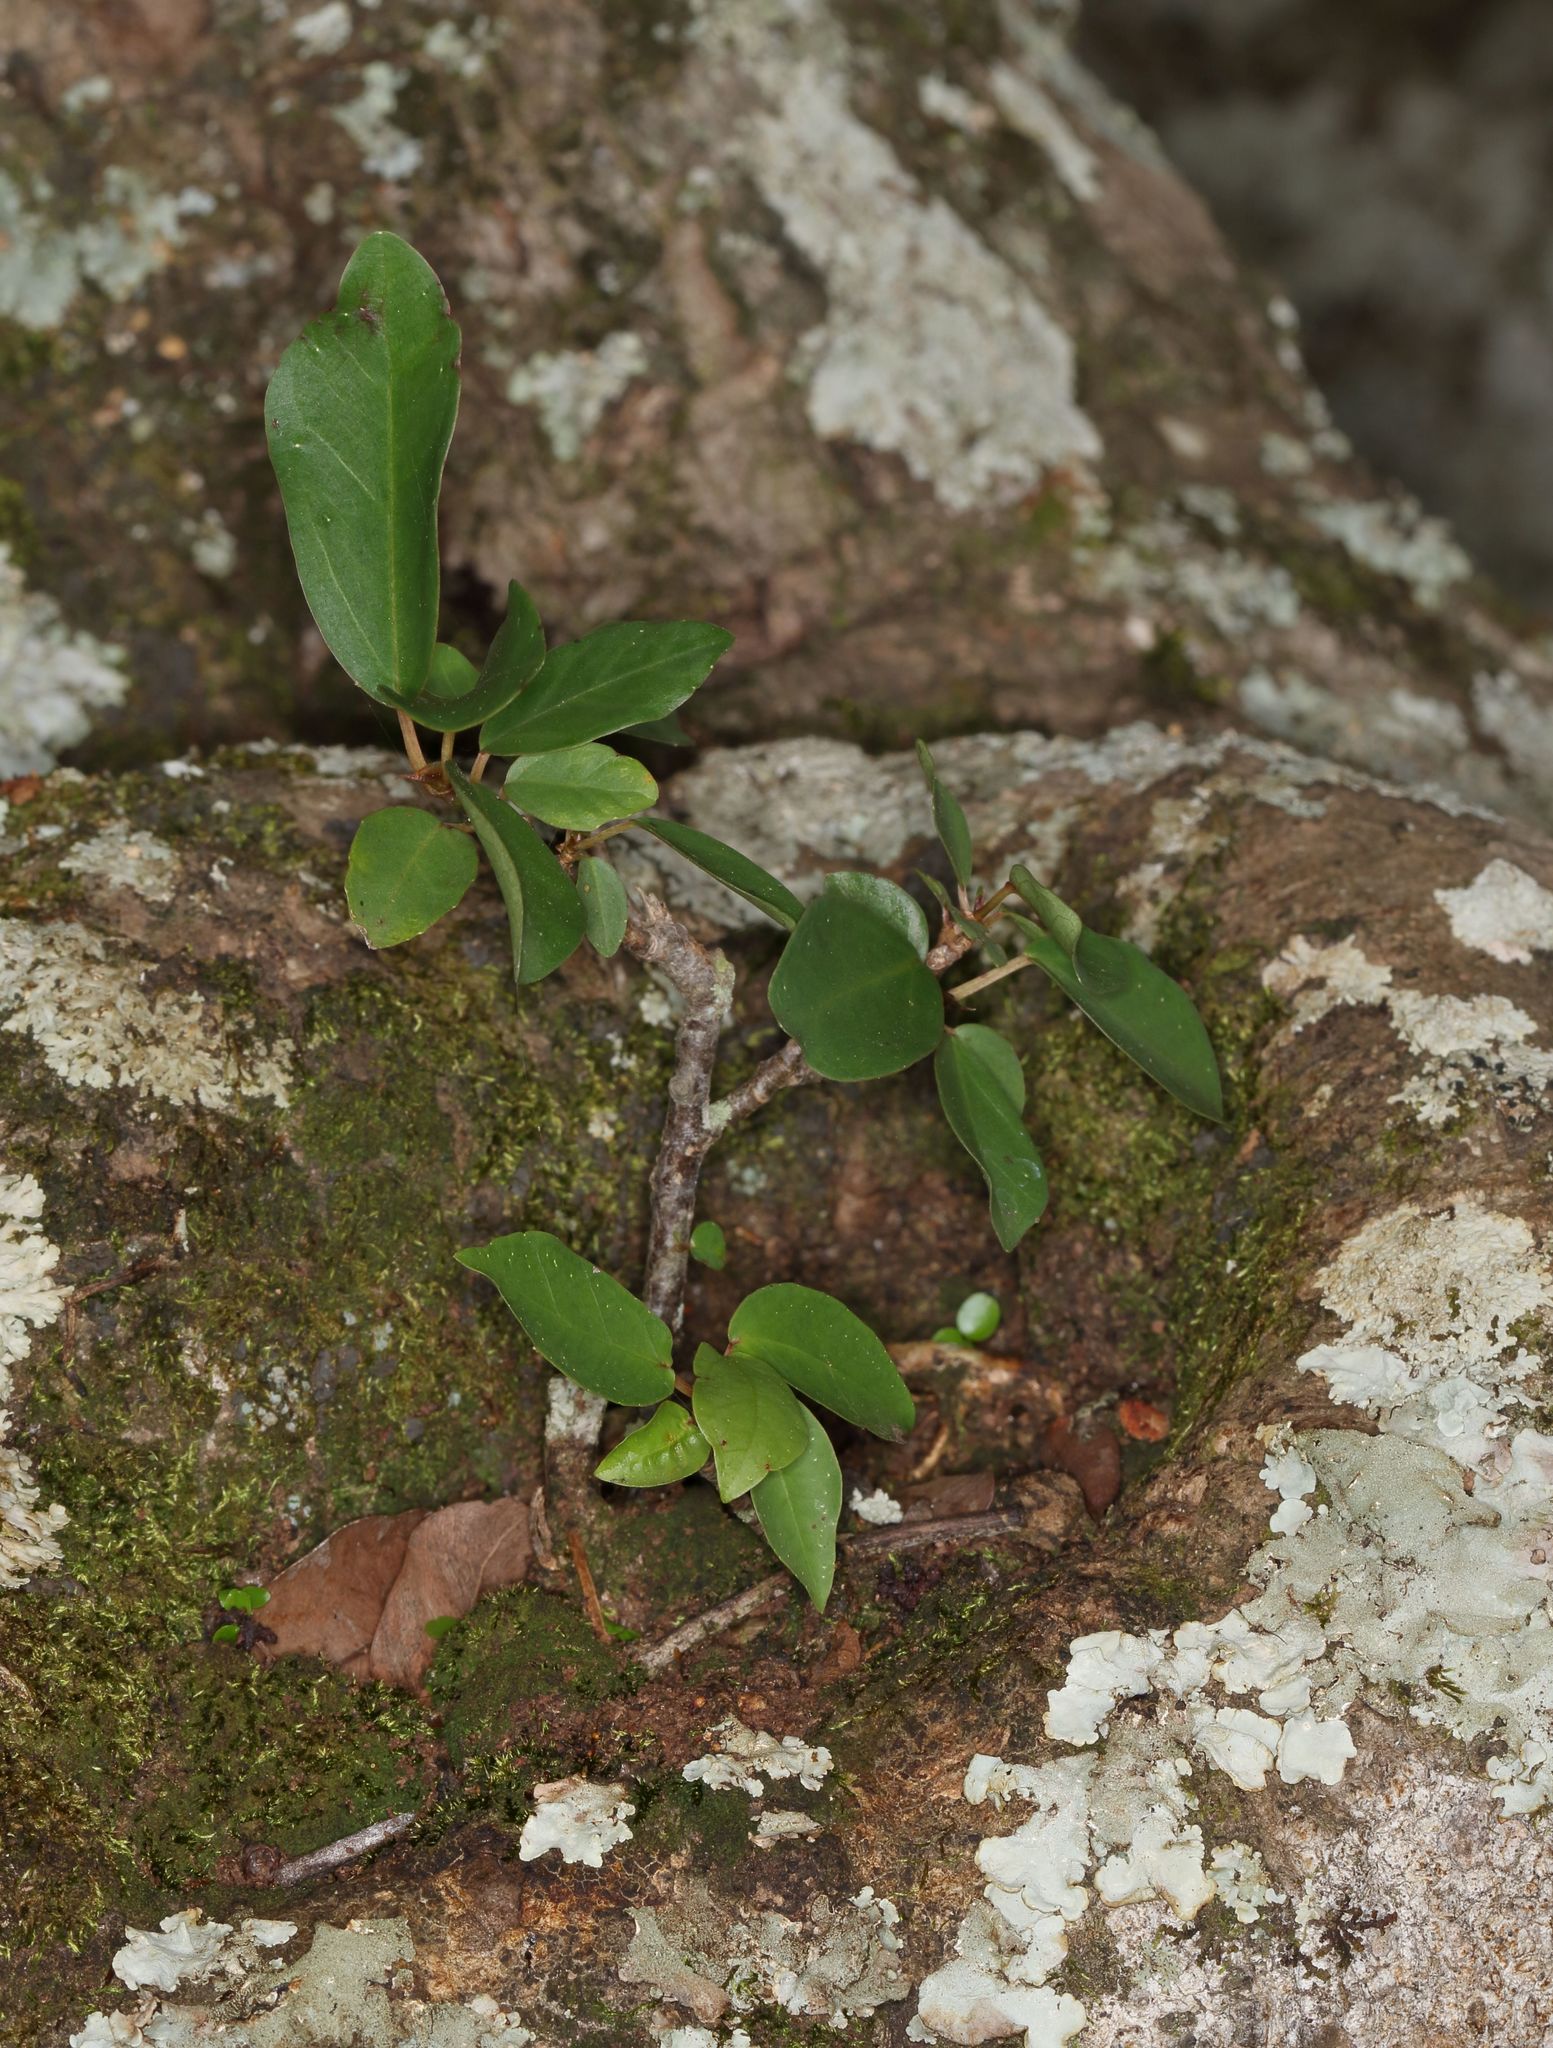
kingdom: Plantae
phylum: Tracheophyta
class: Magnoliopsida
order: Rosales
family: Moraceae
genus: Ficus
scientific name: Ficus burtt-davyi
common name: Scrambling fig
